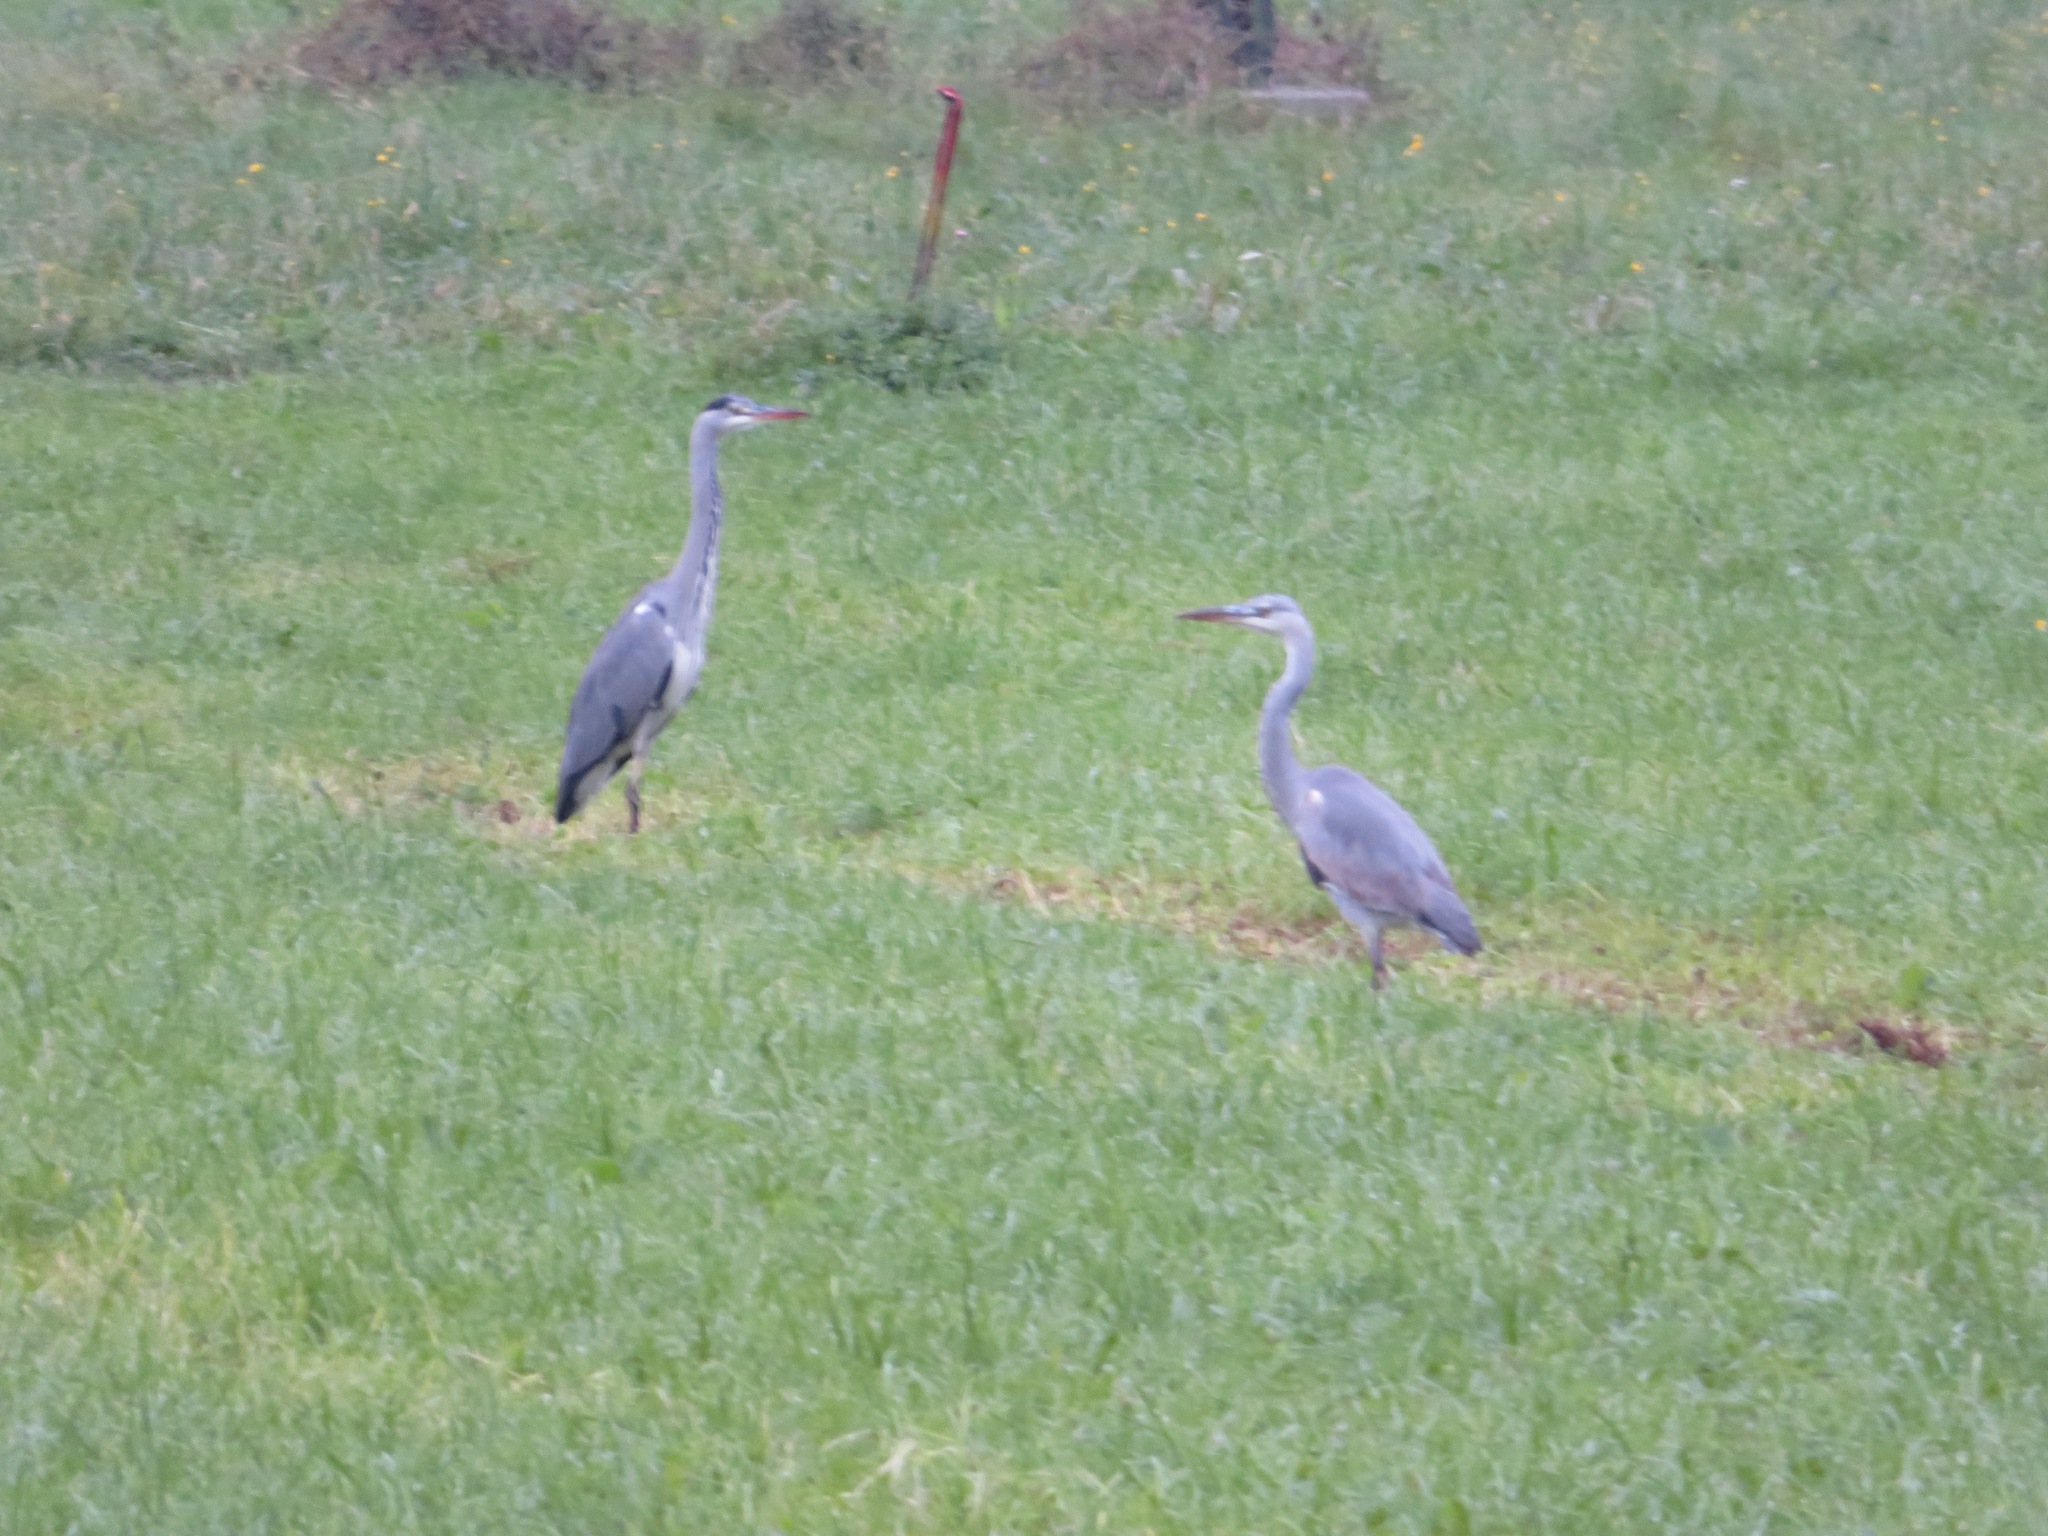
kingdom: Animalia
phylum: Chordata
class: Aves
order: Pelecaniformes
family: Ardeidae
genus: Ardea
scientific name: Ardea cinerea
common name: Grey heron
